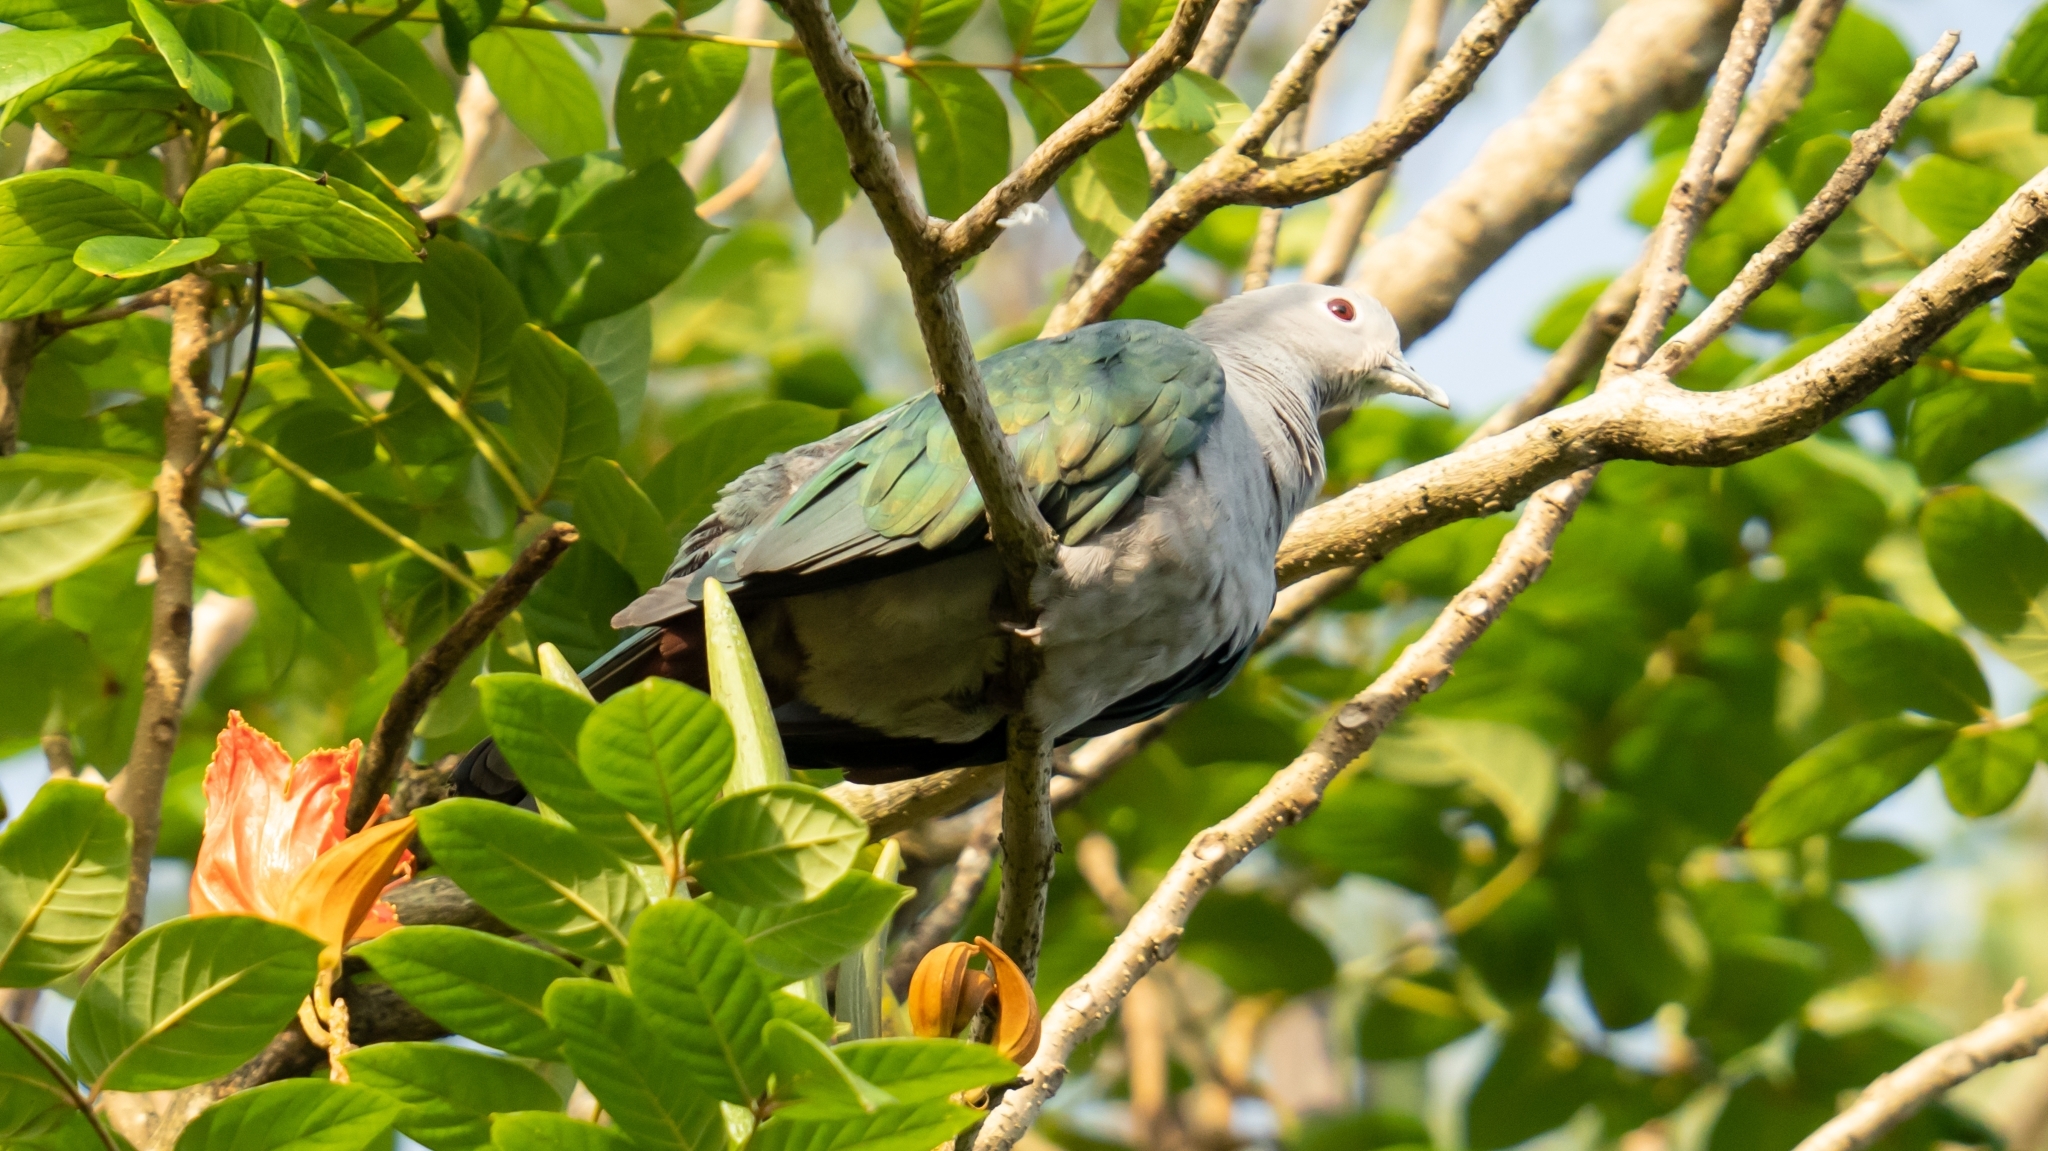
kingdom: Animalia
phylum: Chordata
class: Aves
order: Columbiformes
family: Columbidae
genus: Ducula
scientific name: Ducula aenea
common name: Green imperial pigeon
